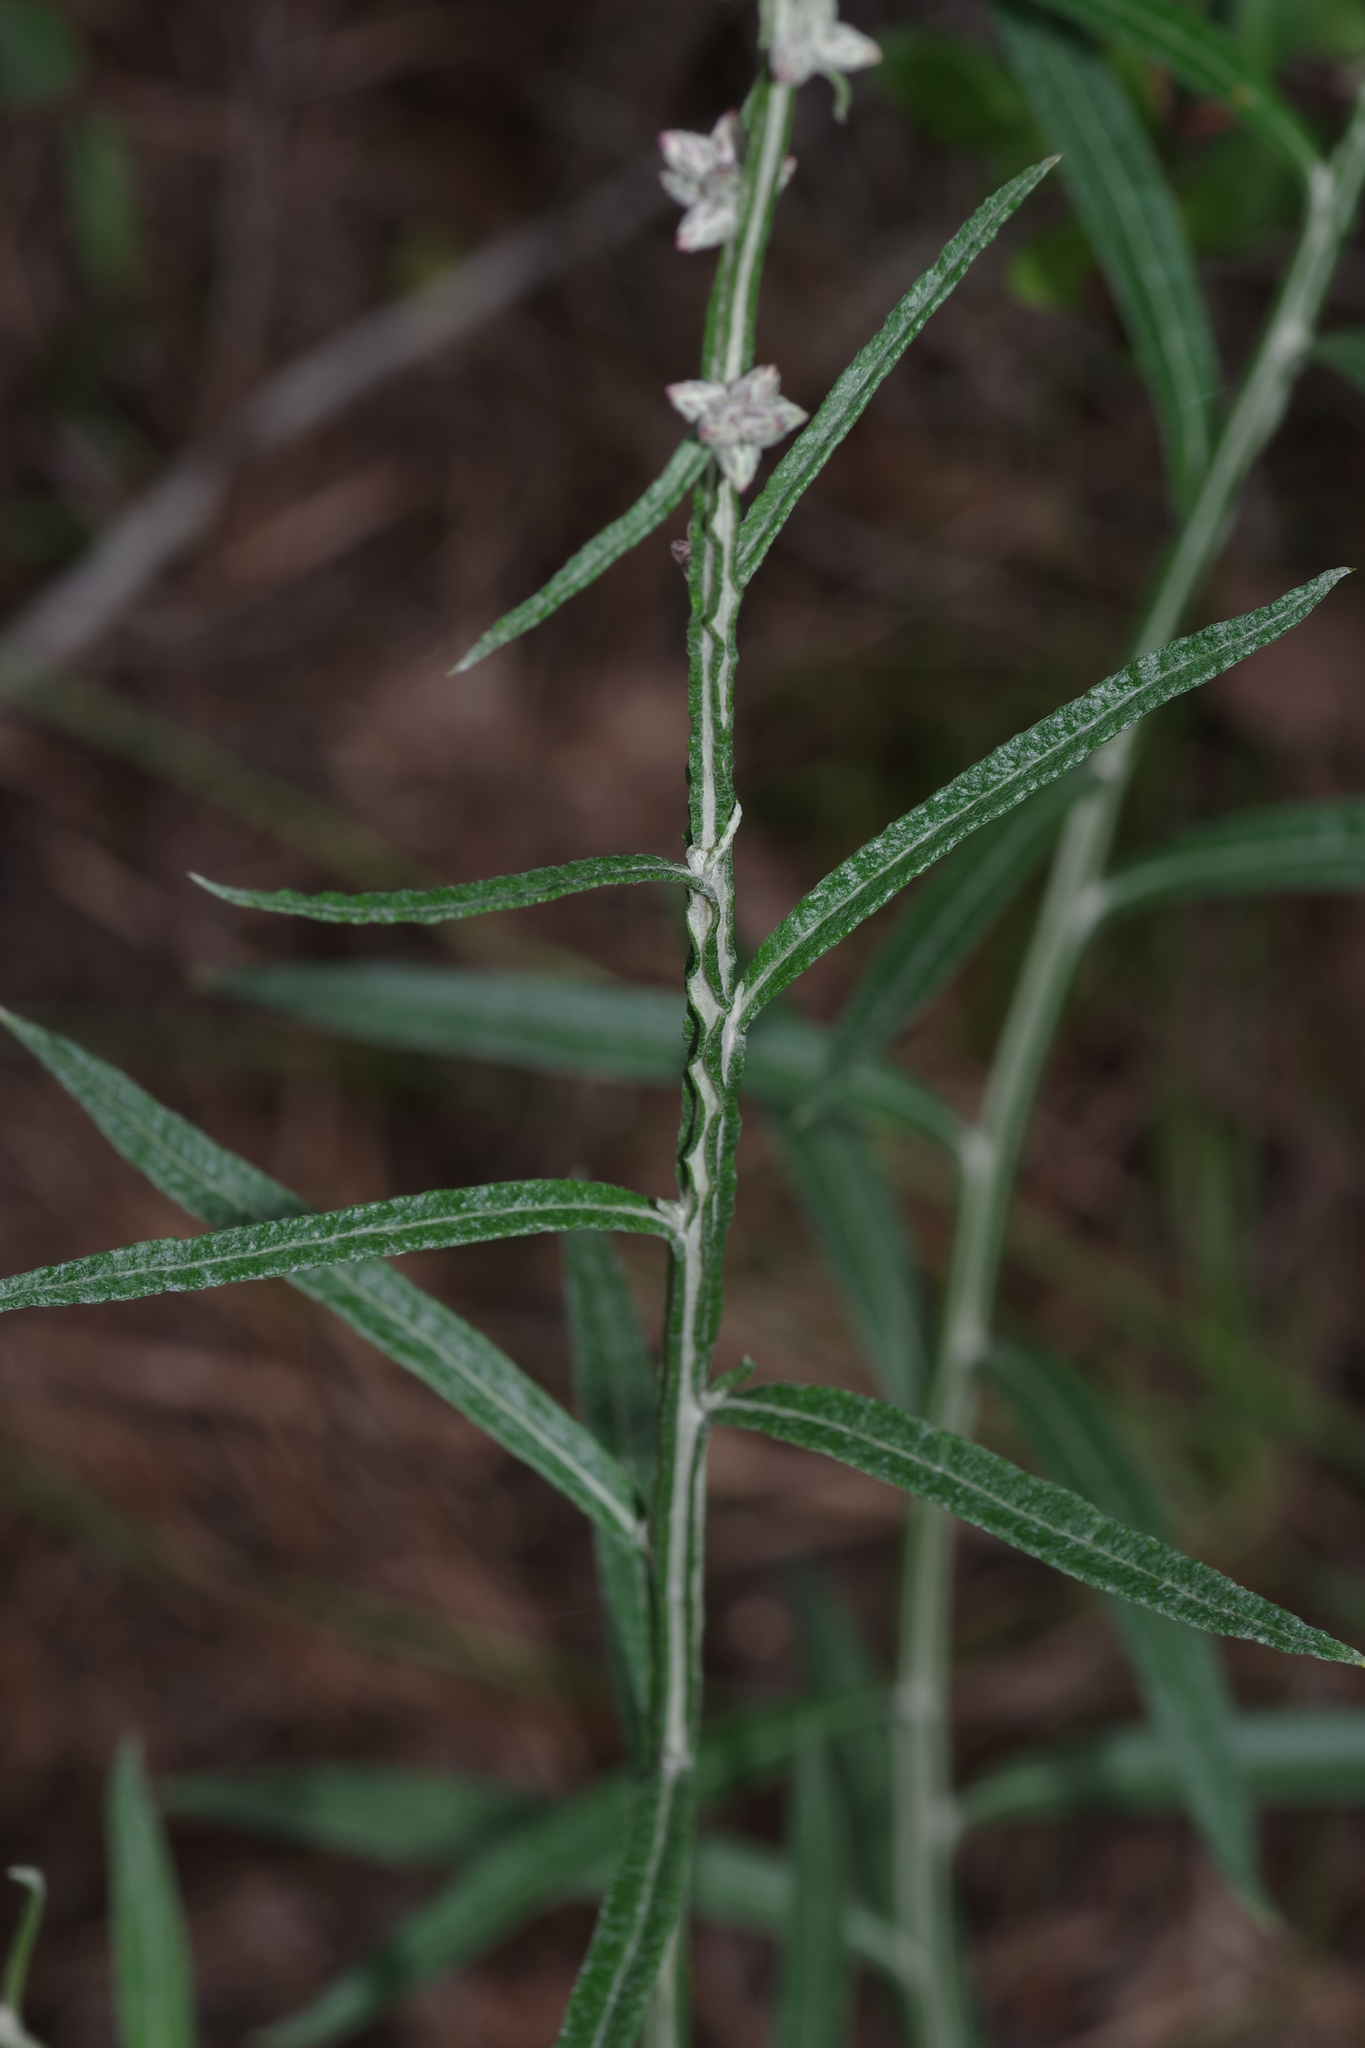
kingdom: Plantae
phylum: Tracheophyta
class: Magnoliopsida
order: Asterales
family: Asteraceae
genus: Pterocaulon
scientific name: Pterocaulon virgatum
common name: Wand blackroot
